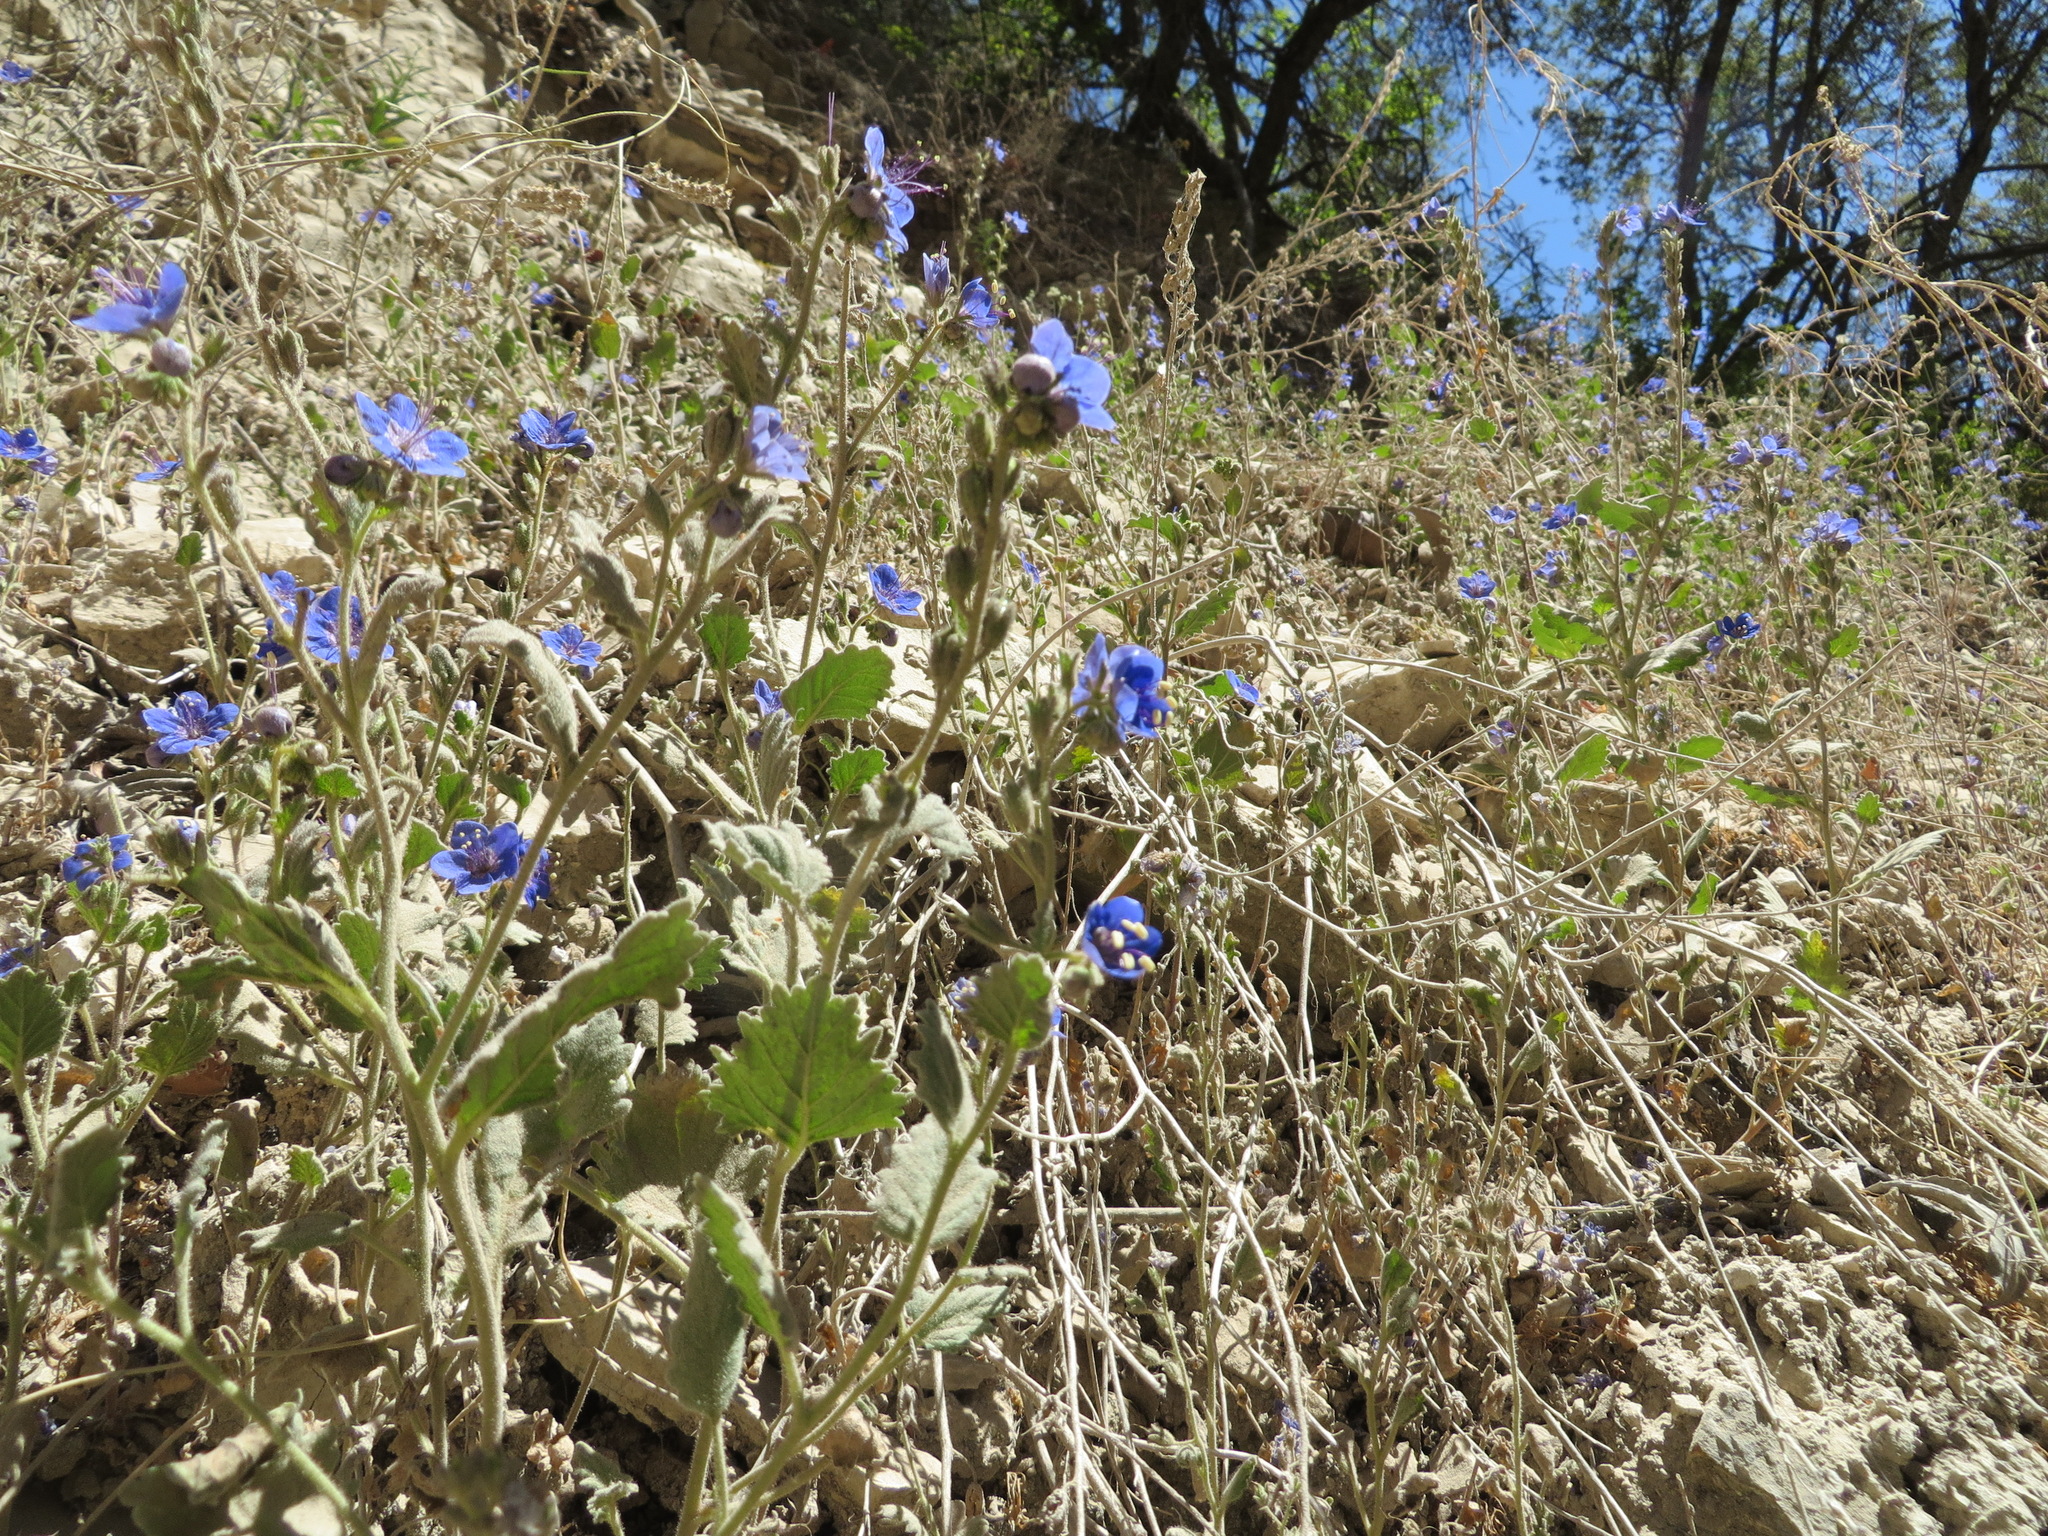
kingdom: Plantae
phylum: Tracheophyta
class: Magnoliopsida
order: Boraginales
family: Hydrophyllaceae
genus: Phacelia
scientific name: Phacelia viscida
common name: Sticky phacelia
